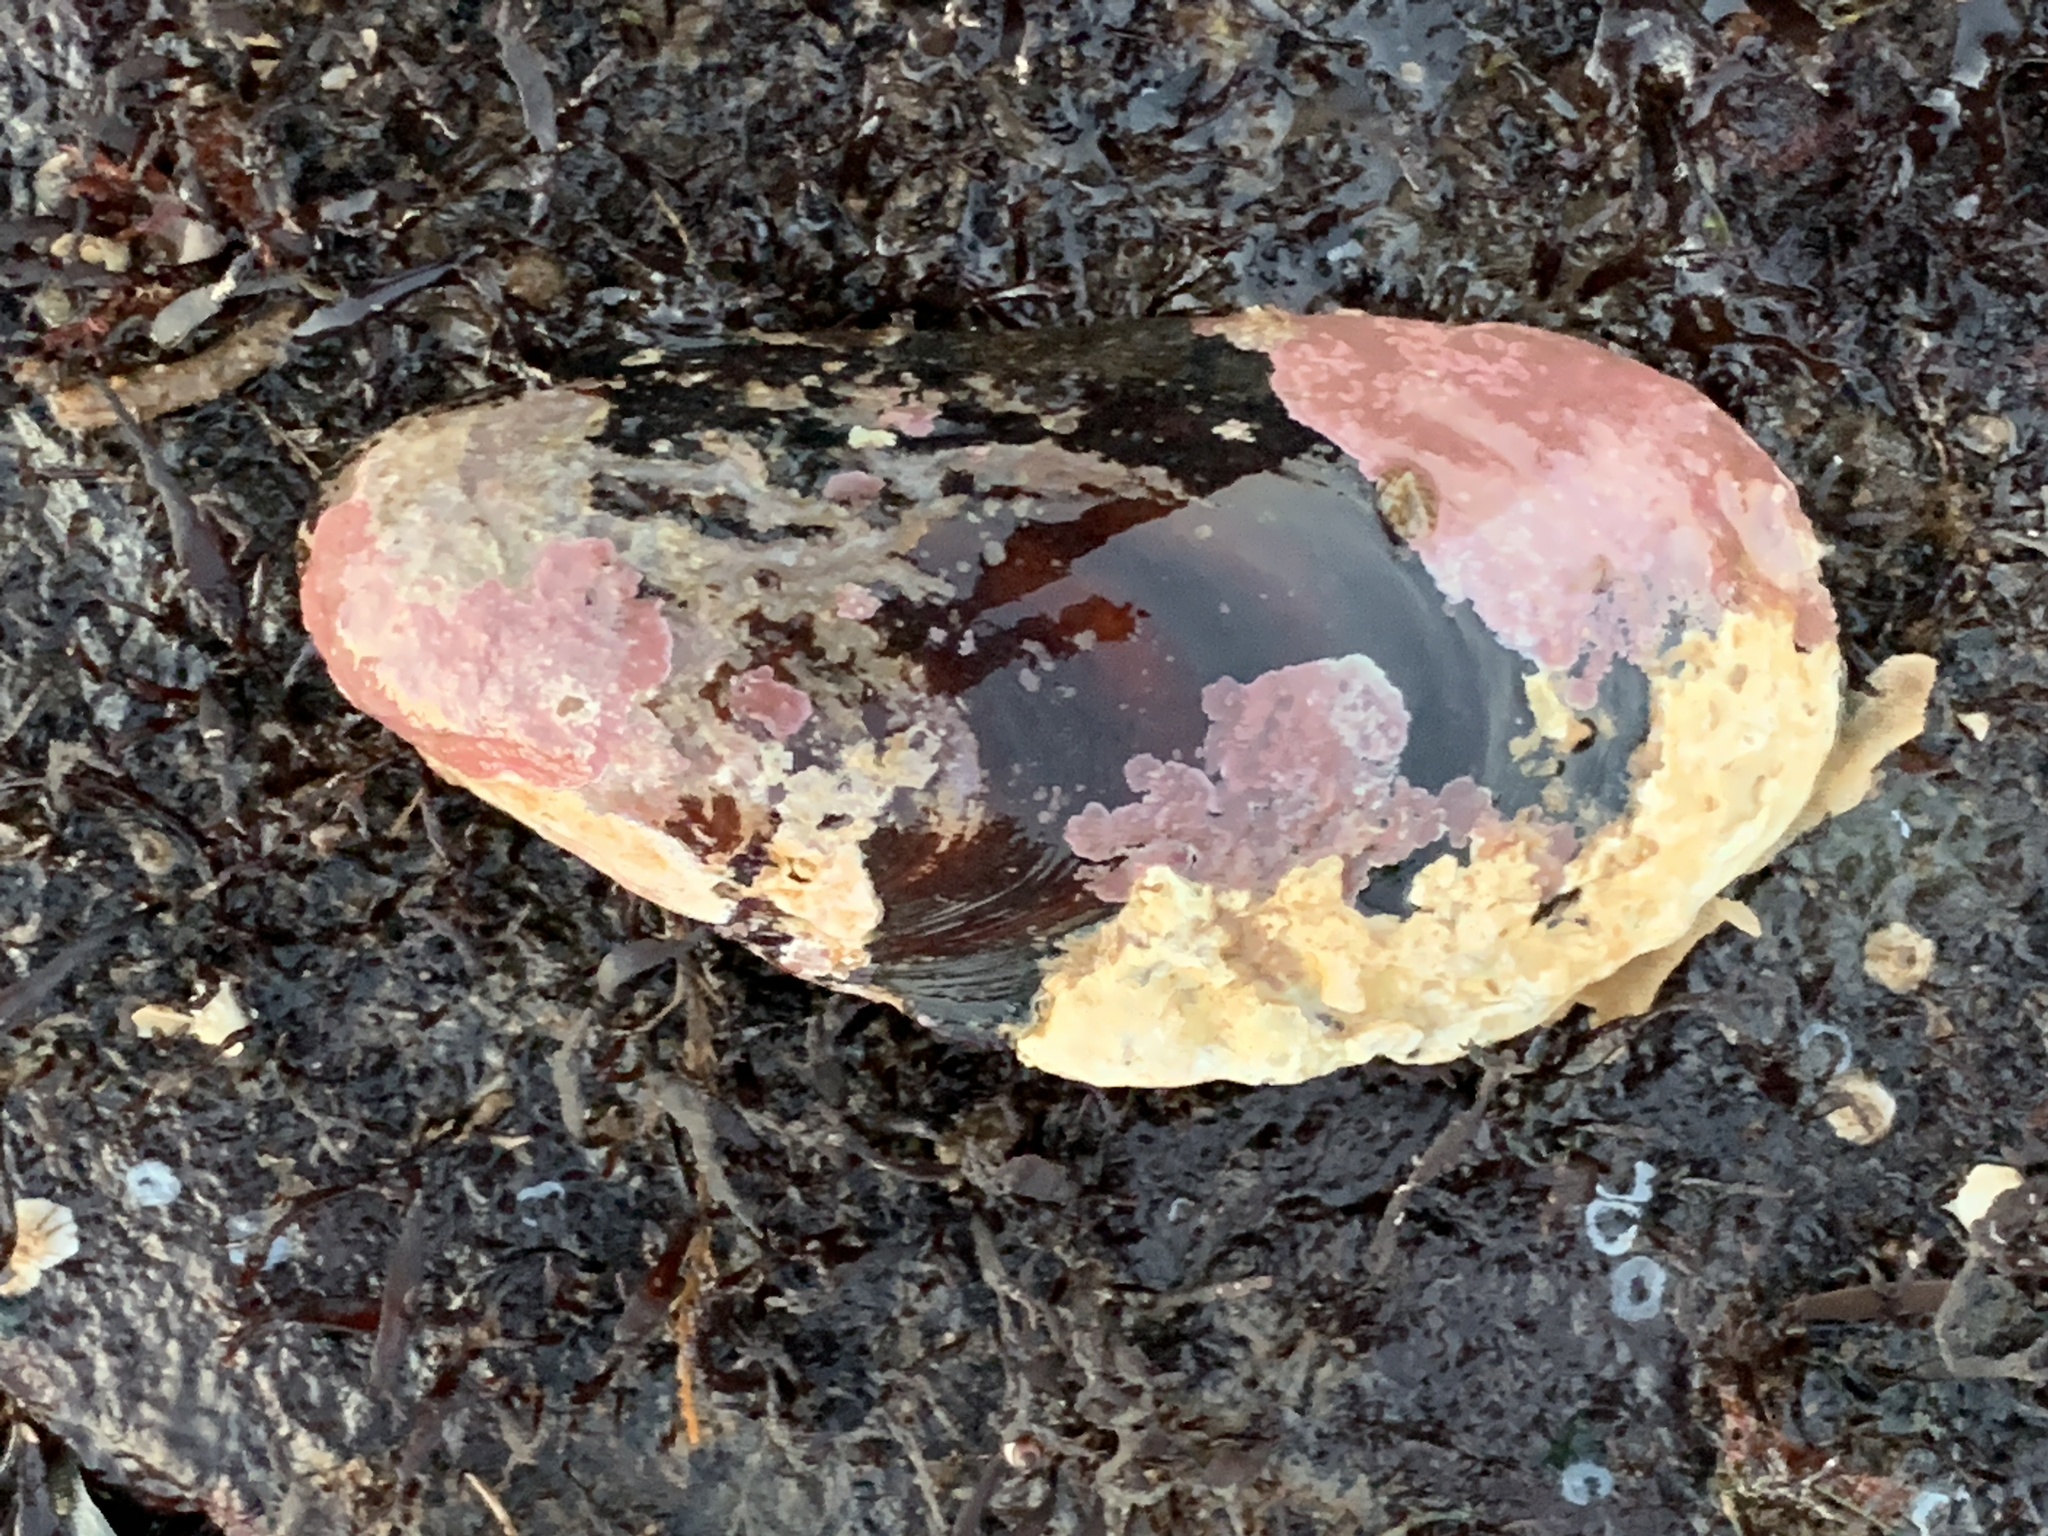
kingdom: Animalia
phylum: Mollusca
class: Bivalvia
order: Mytilida
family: Mytilidae
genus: Modiolus
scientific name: Modiolus modiolus
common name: Horse-mussel
